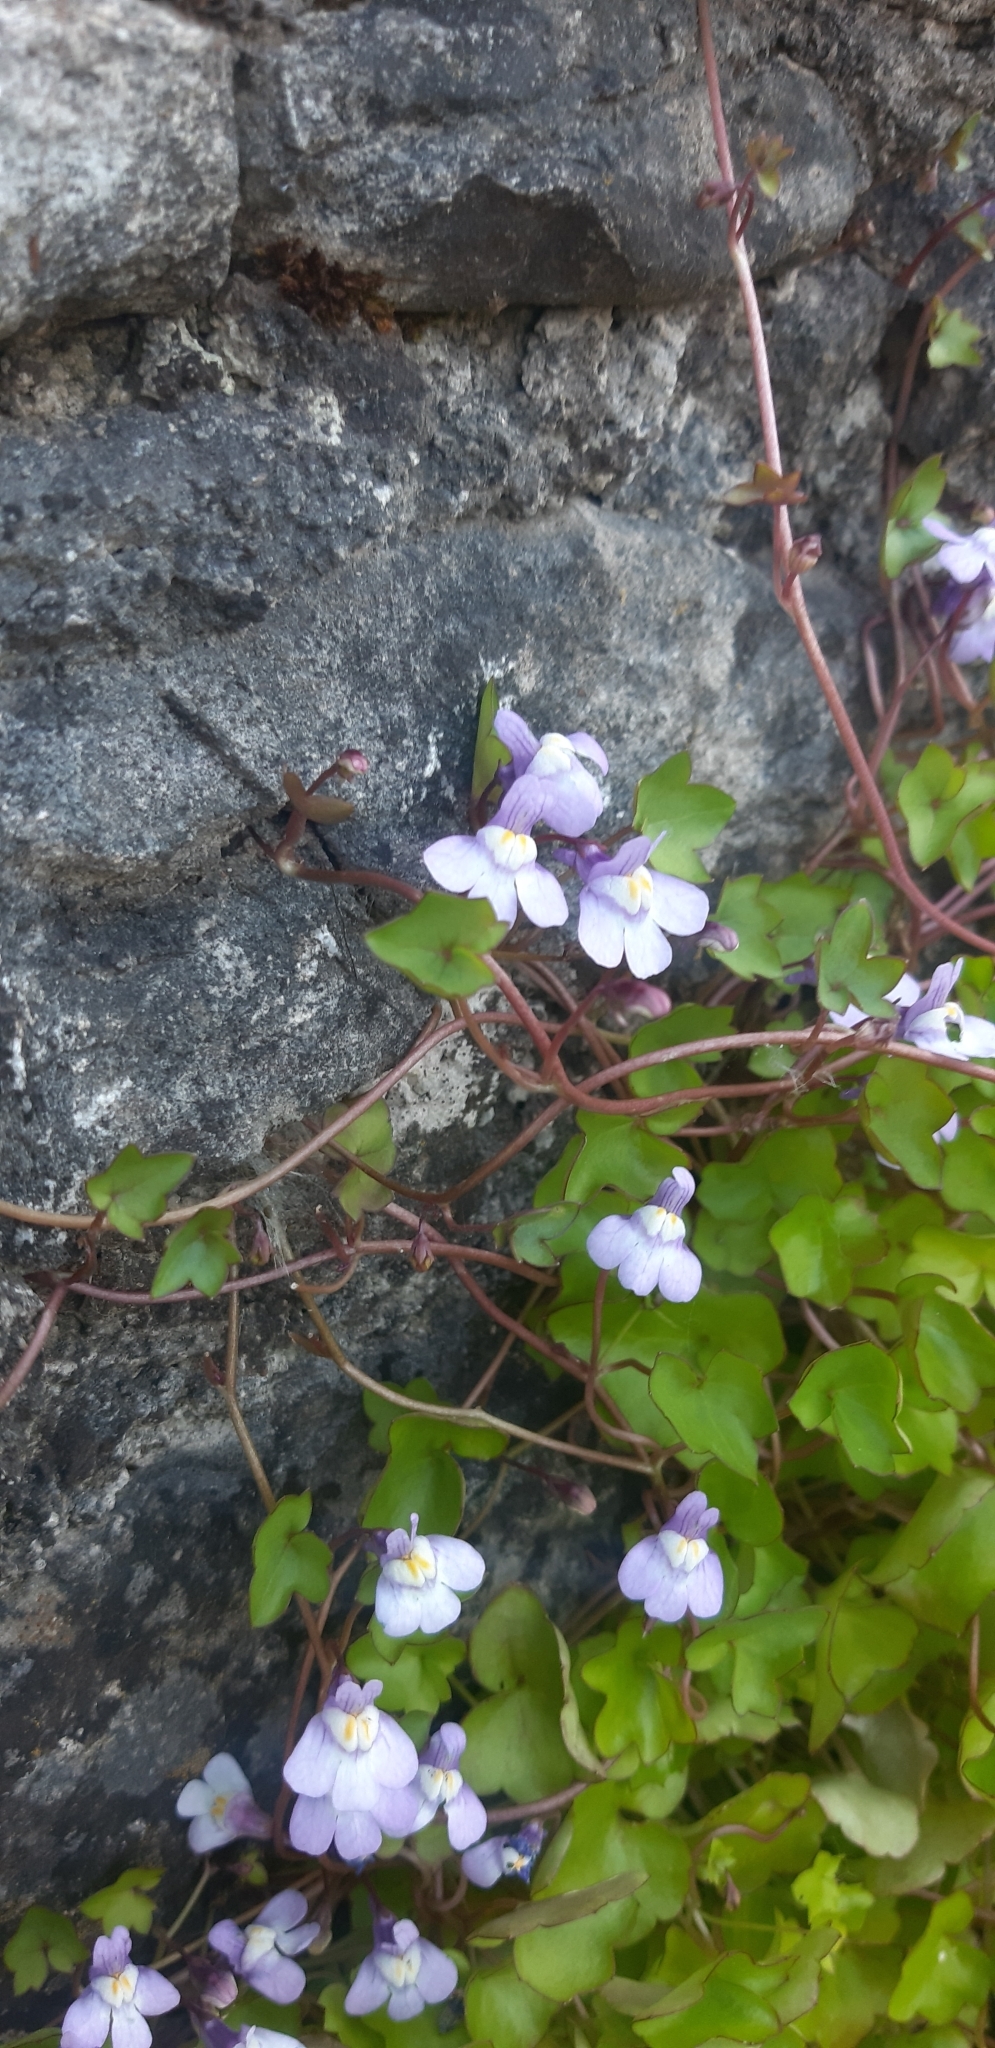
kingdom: Plantae
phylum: Tracheophyta
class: Magnoliopsida
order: Lamiales
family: Plantaginaceae
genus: Cymbalaria
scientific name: Cymbalaria muralis
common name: Ivy-leaved toadflax
